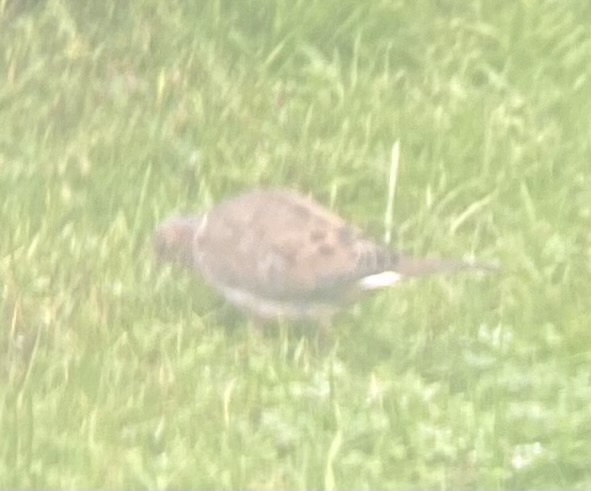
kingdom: Animalia
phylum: Chordata
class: Aves
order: Columbiformes
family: Columbidae
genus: Zenaida
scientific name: Zenaida macroura
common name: Mourning dove
